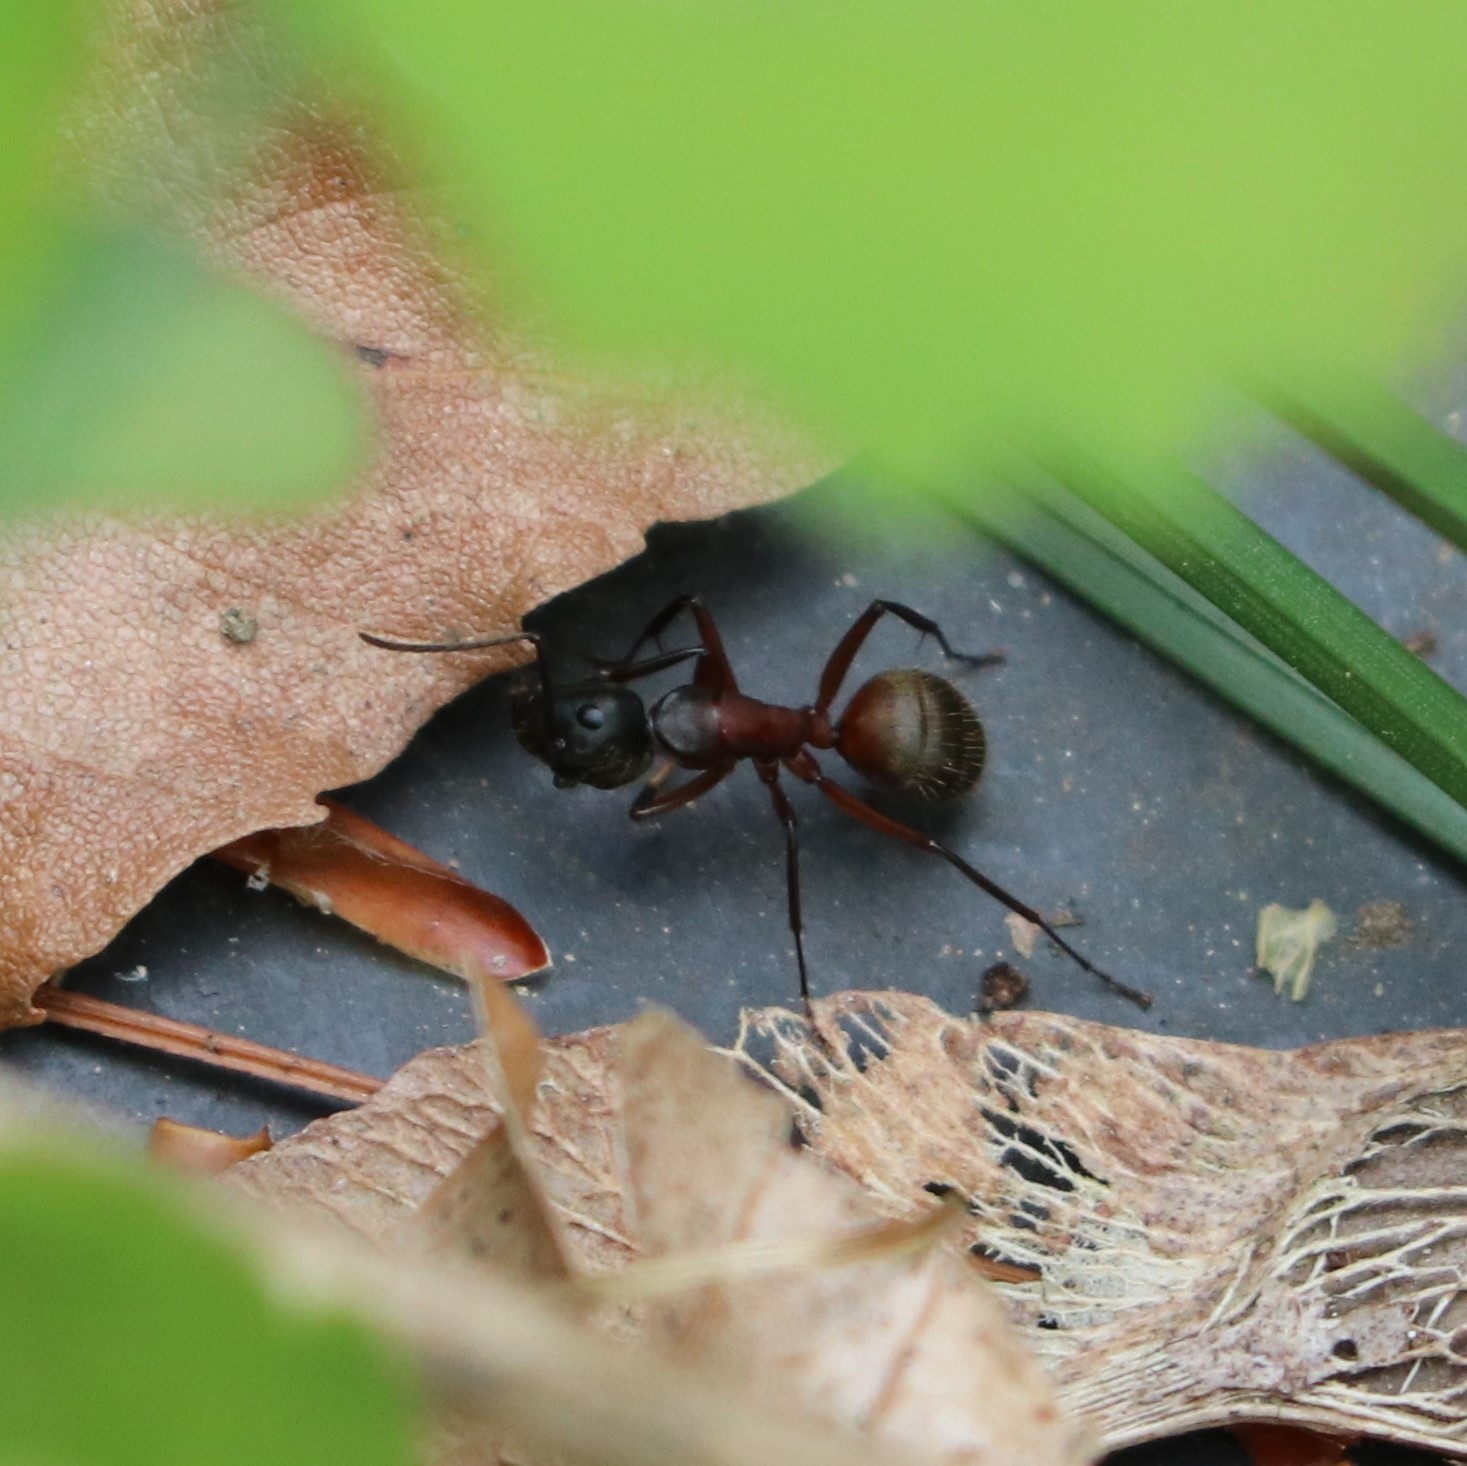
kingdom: Animalia
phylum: Arthropoda
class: Insecta
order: Hymenoptera
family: Formicidae
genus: Camponotus
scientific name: Camponotus chromaiodes
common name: Red carpenter ant
